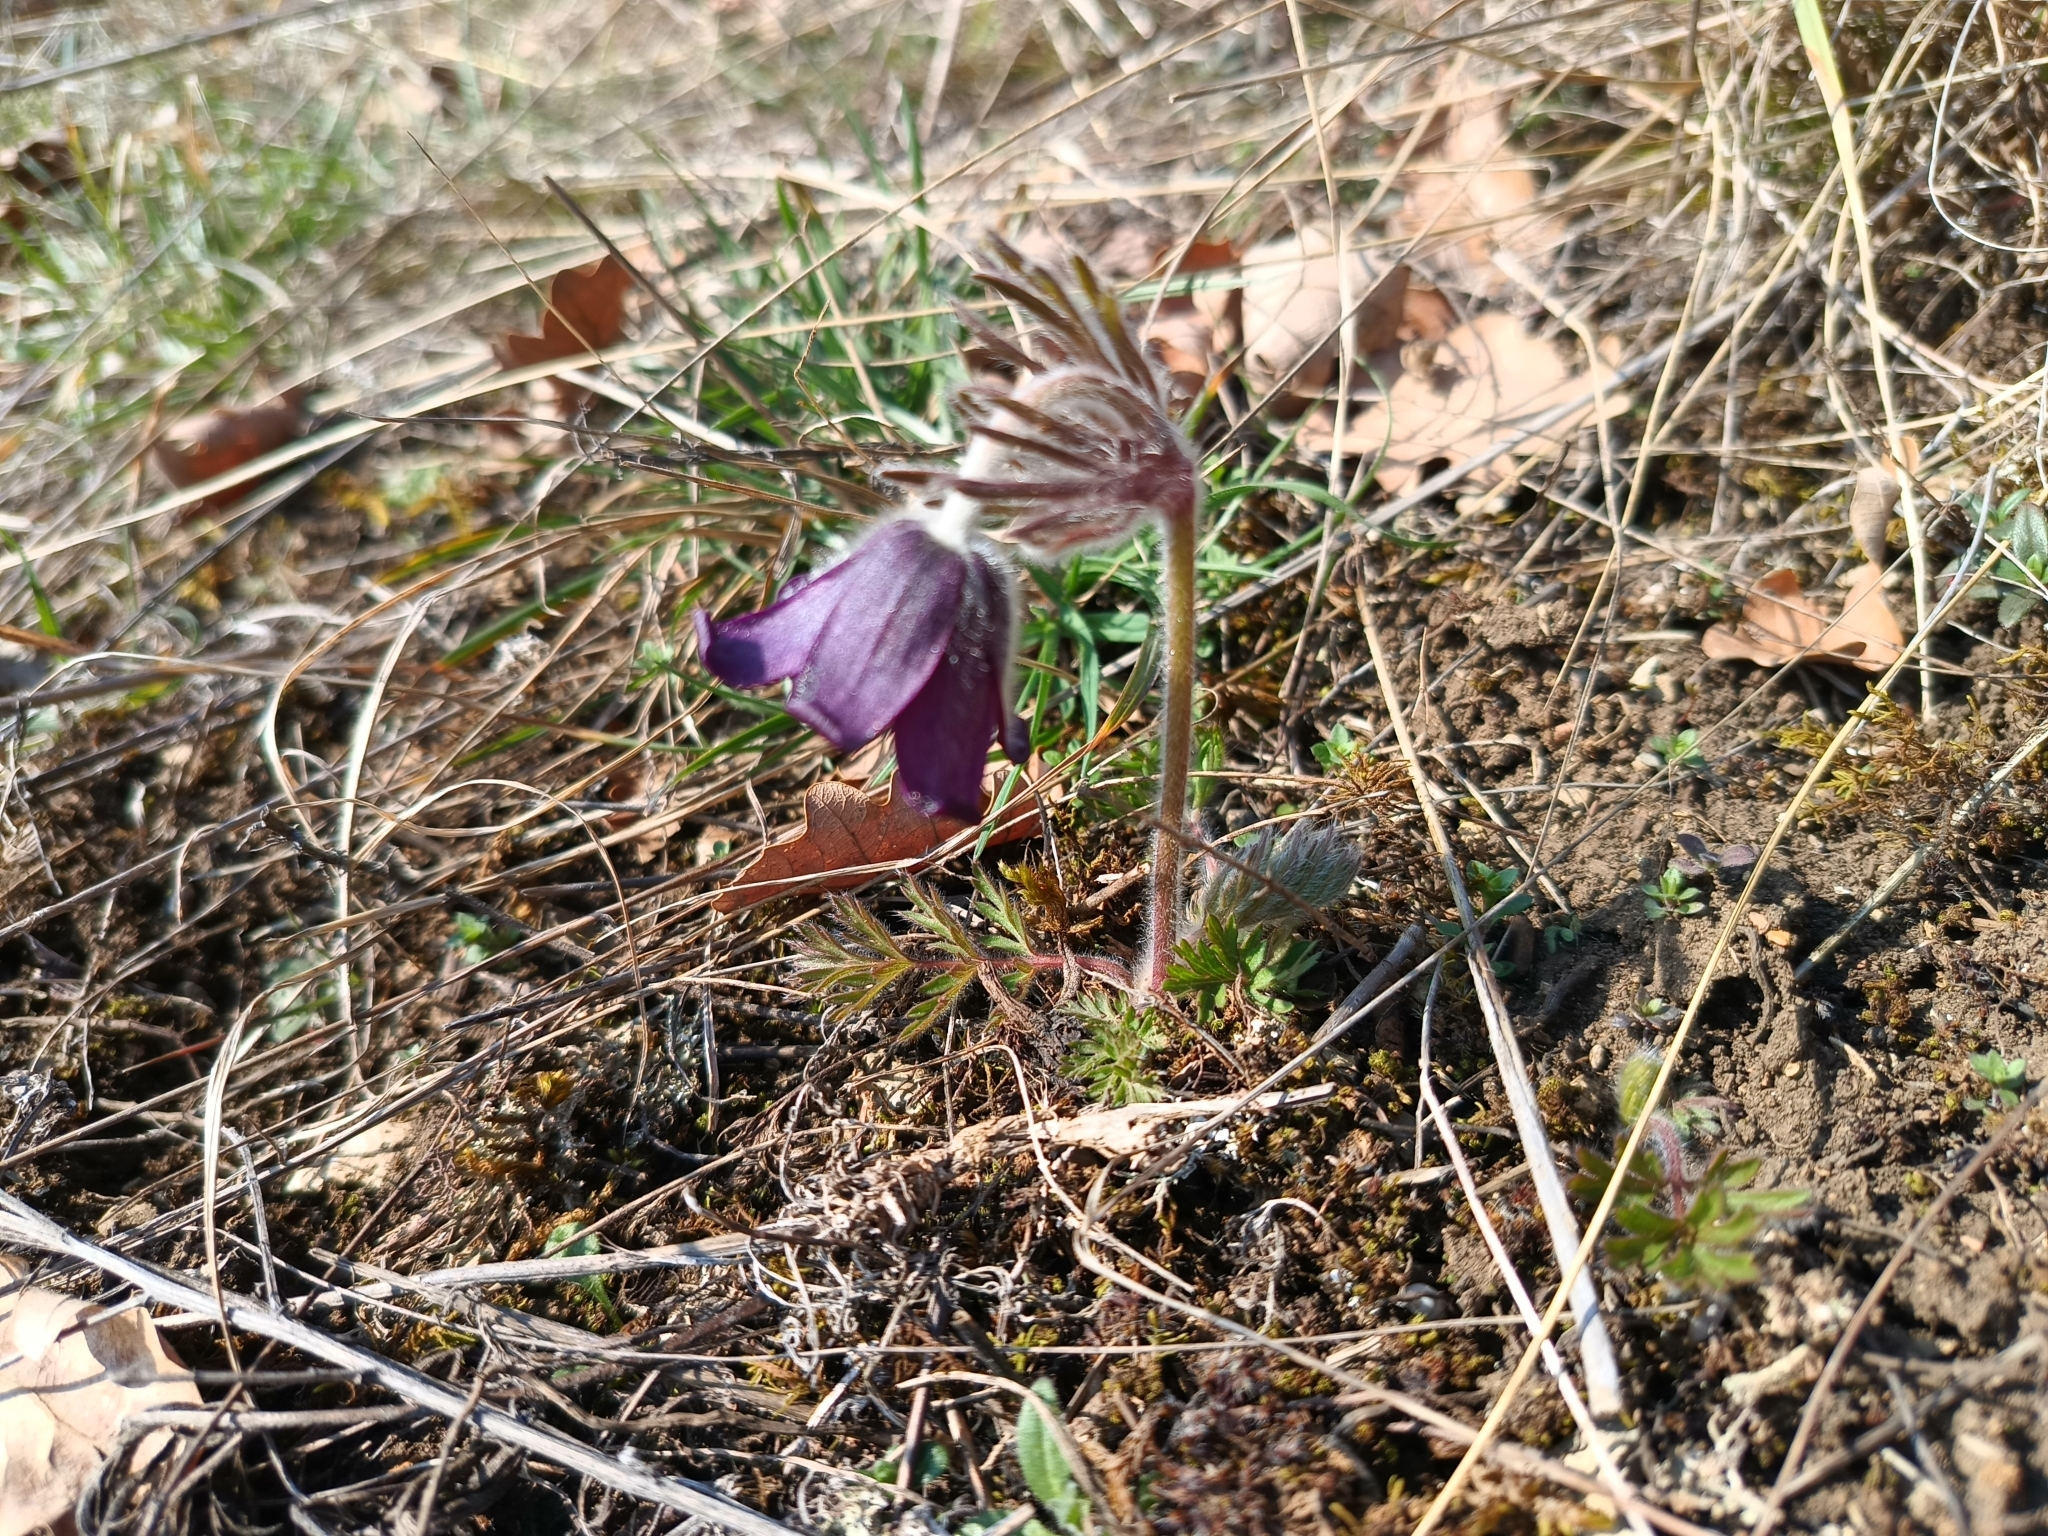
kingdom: Plantae
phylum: Tracheophyta
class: Magnoliopsida
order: Ranunculales
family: Ranunculaceae
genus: Pulsatilla
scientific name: Pulsatilla pratensis
